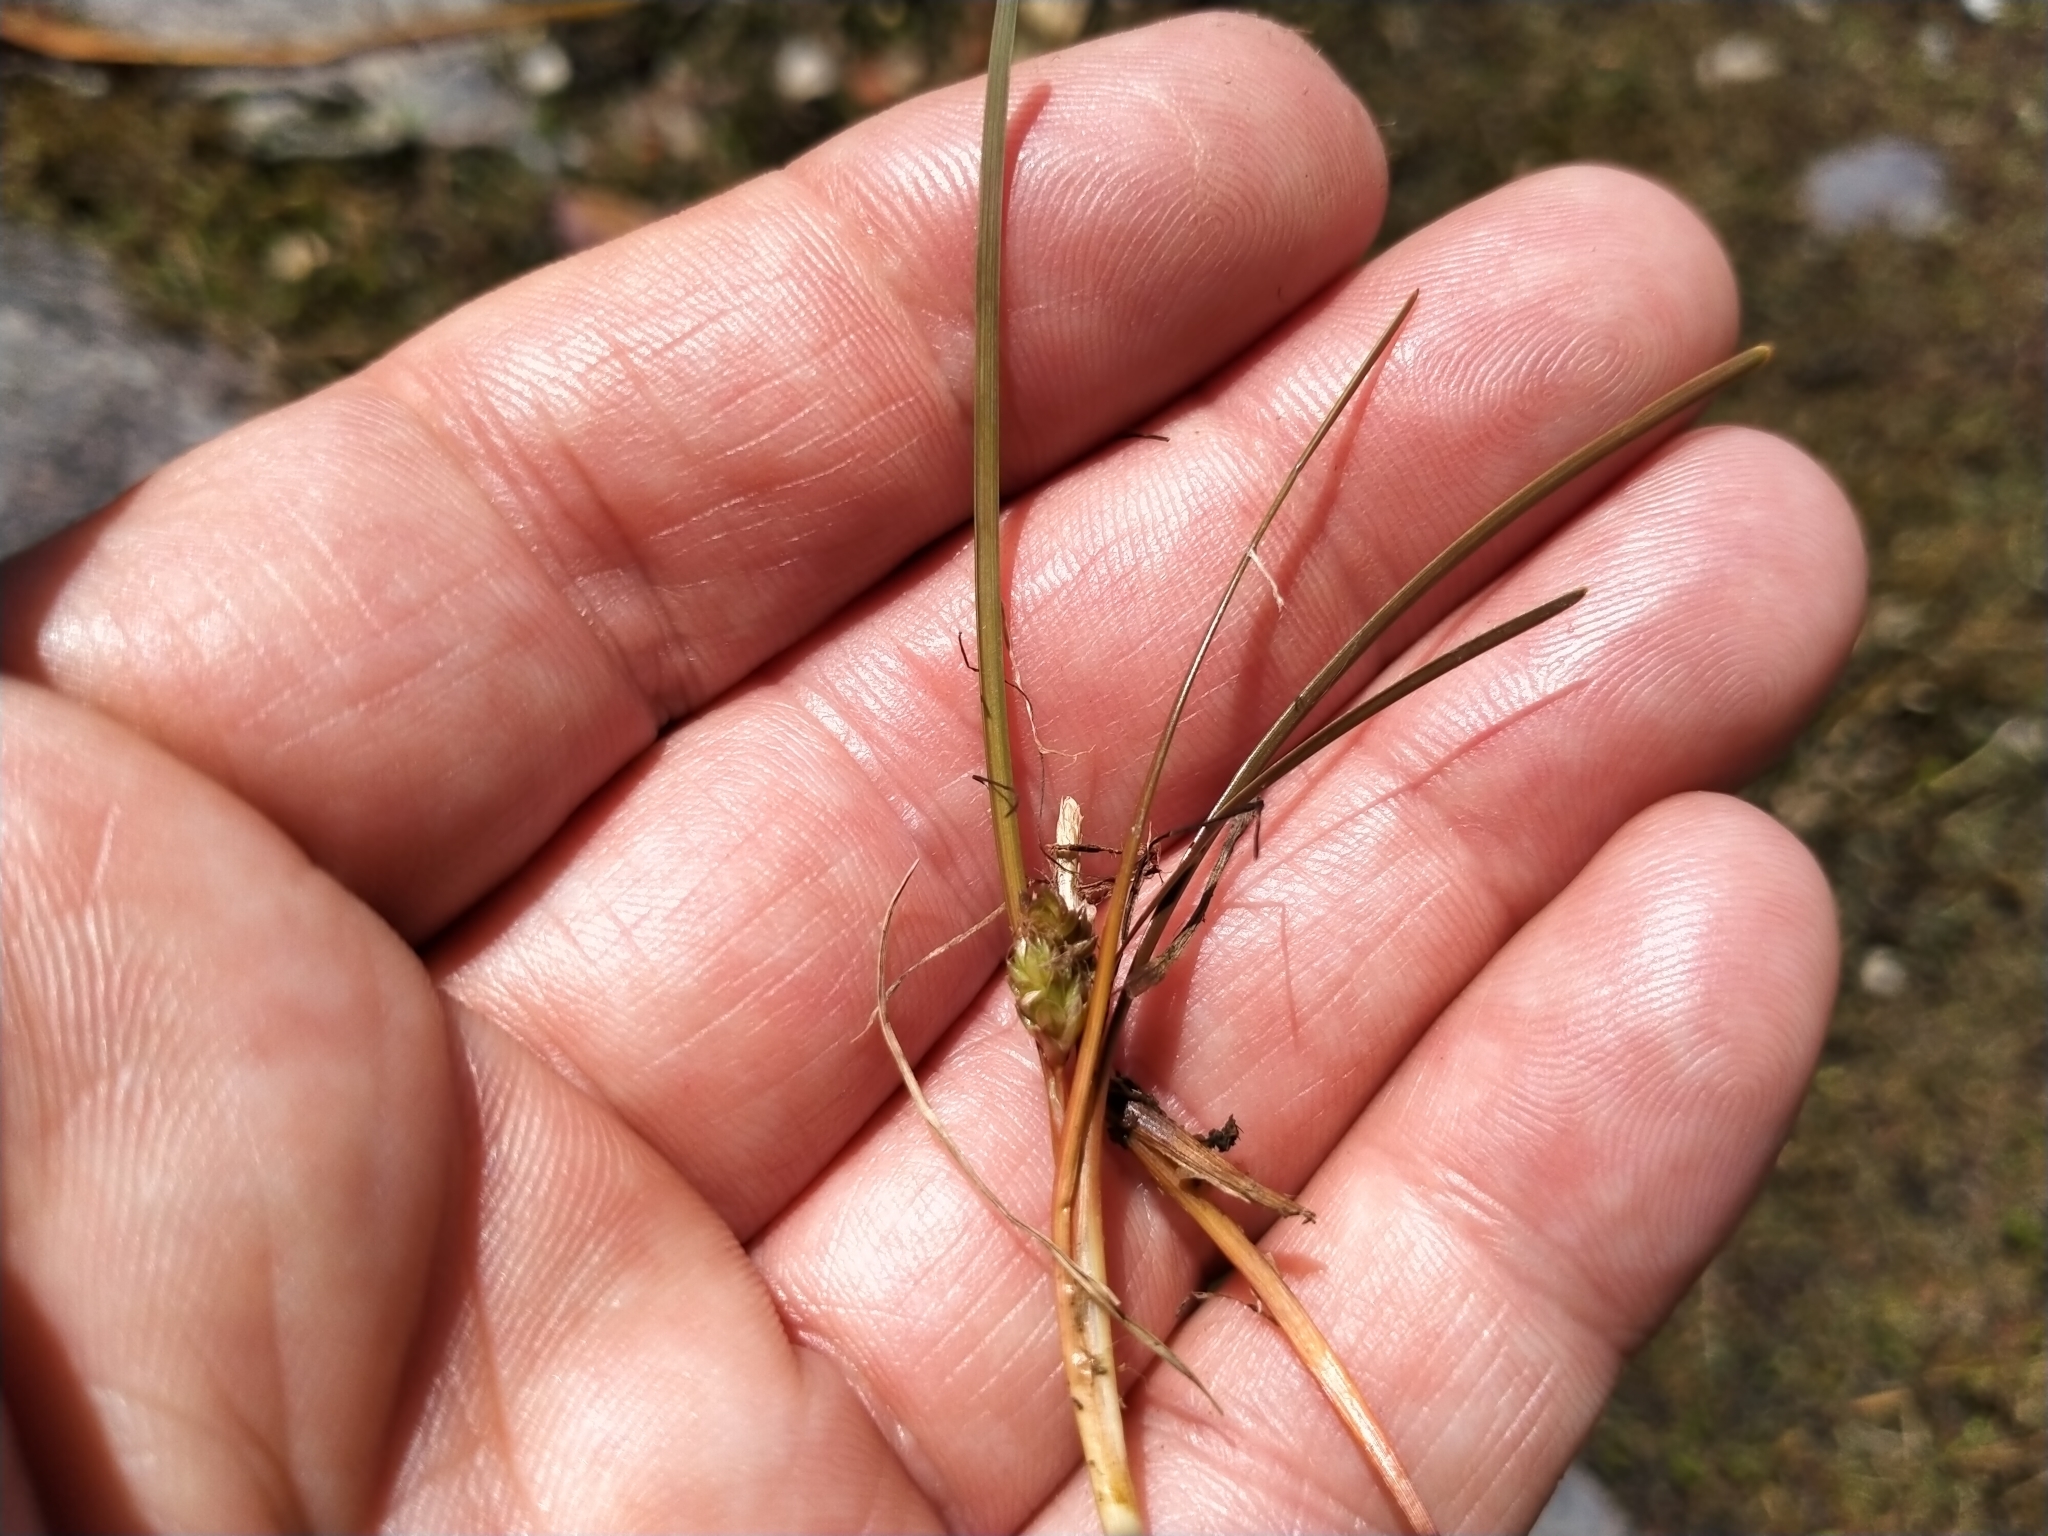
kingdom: Plantae
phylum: Tracheophyta
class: Liliopsida
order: Poales
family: Cyperaceae
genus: Carex
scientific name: Carex rubicunda
